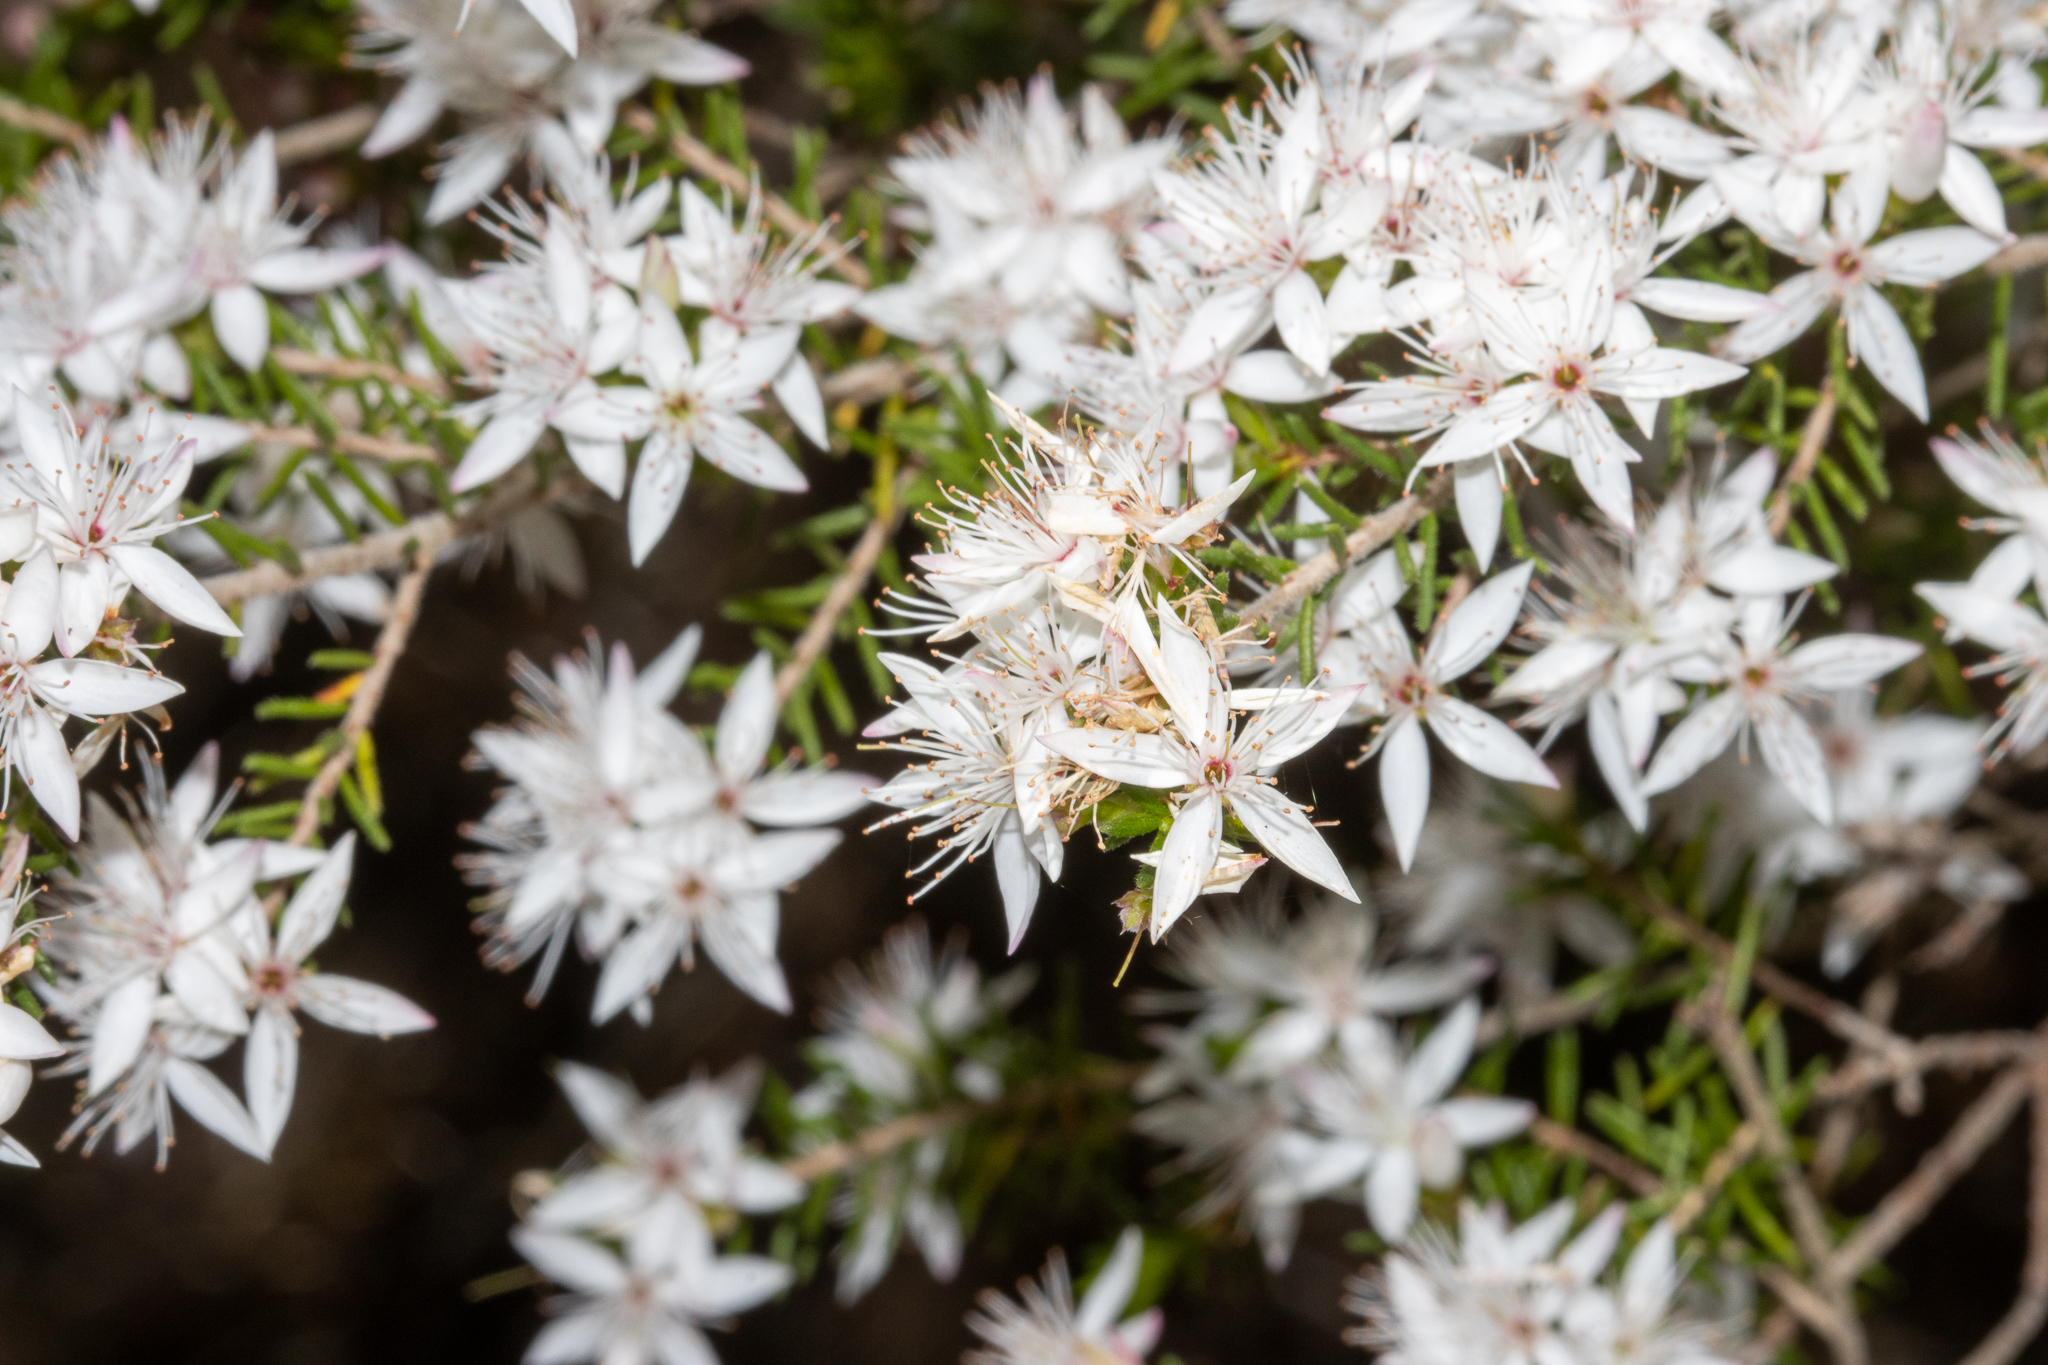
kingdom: Plantae
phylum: Tracheophyta
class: Magnoliopsida
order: Myrtales
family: Myrtaceae
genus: Calytrix
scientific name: Calytrix alpestris
